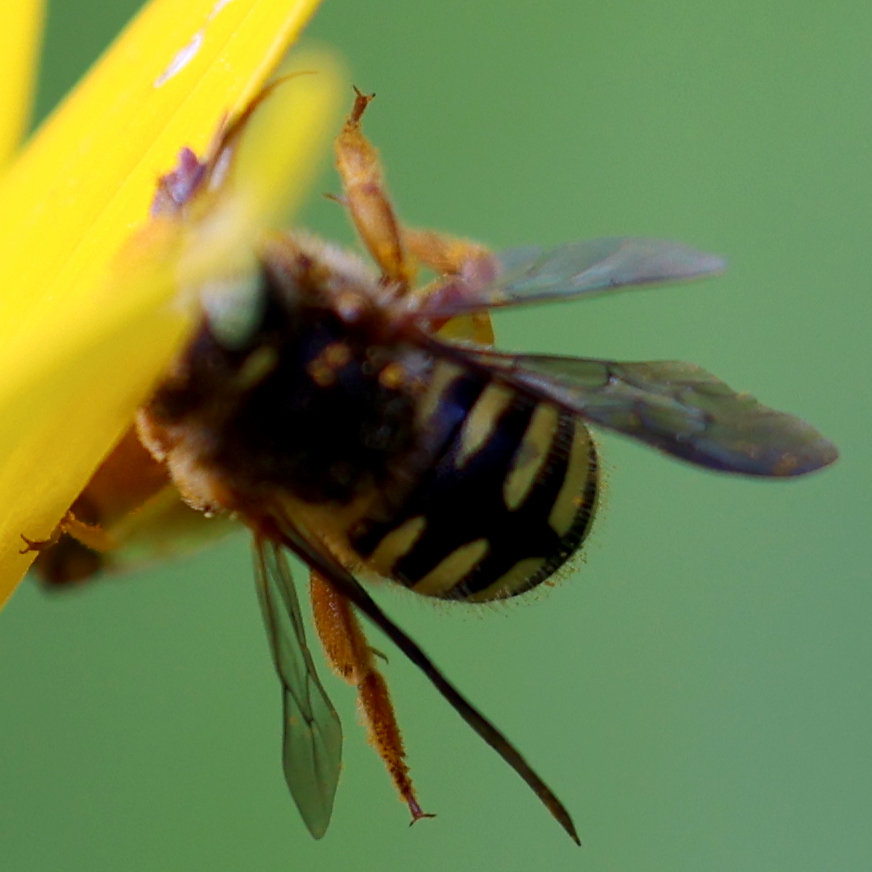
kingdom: Animalia
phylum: Arthropoda
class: Insecta
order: Hymenoptera
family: Megachilidae
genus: Anthidium
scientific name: Anthidium oblongatum
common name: Oblong wool carder bee
